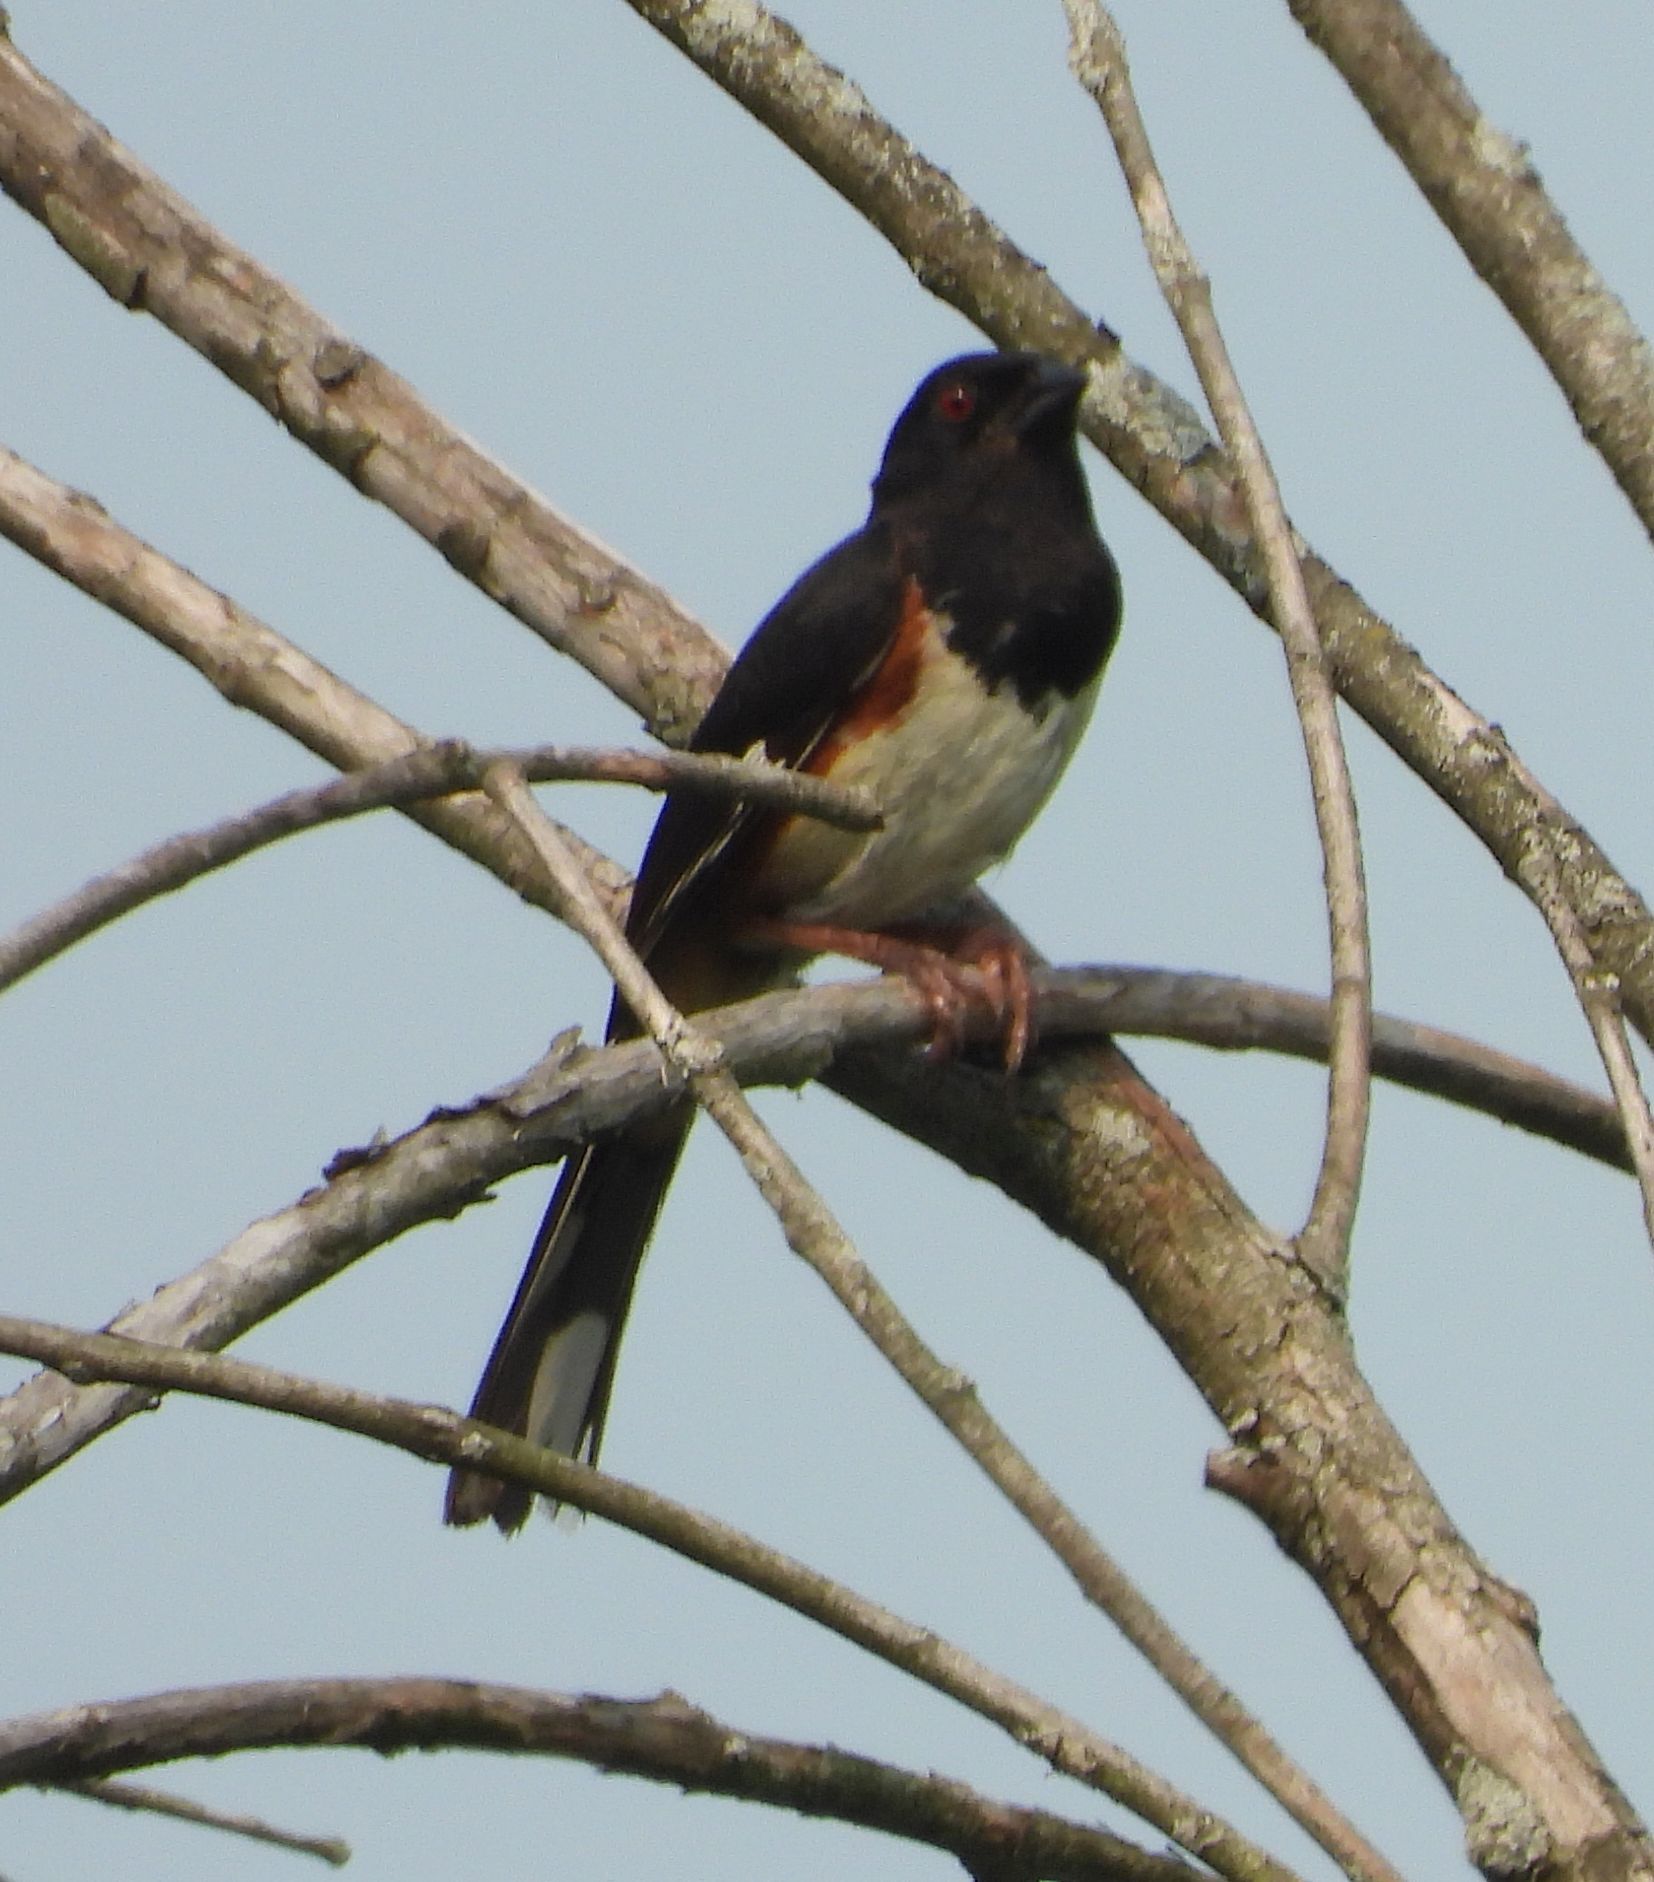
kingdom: Animalia
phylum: Chordata
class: Aves
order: Passeriformes
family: Passerellidae
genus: Pipilo
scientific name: Pipilo erythrophthalmus
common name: Eastern towhee
